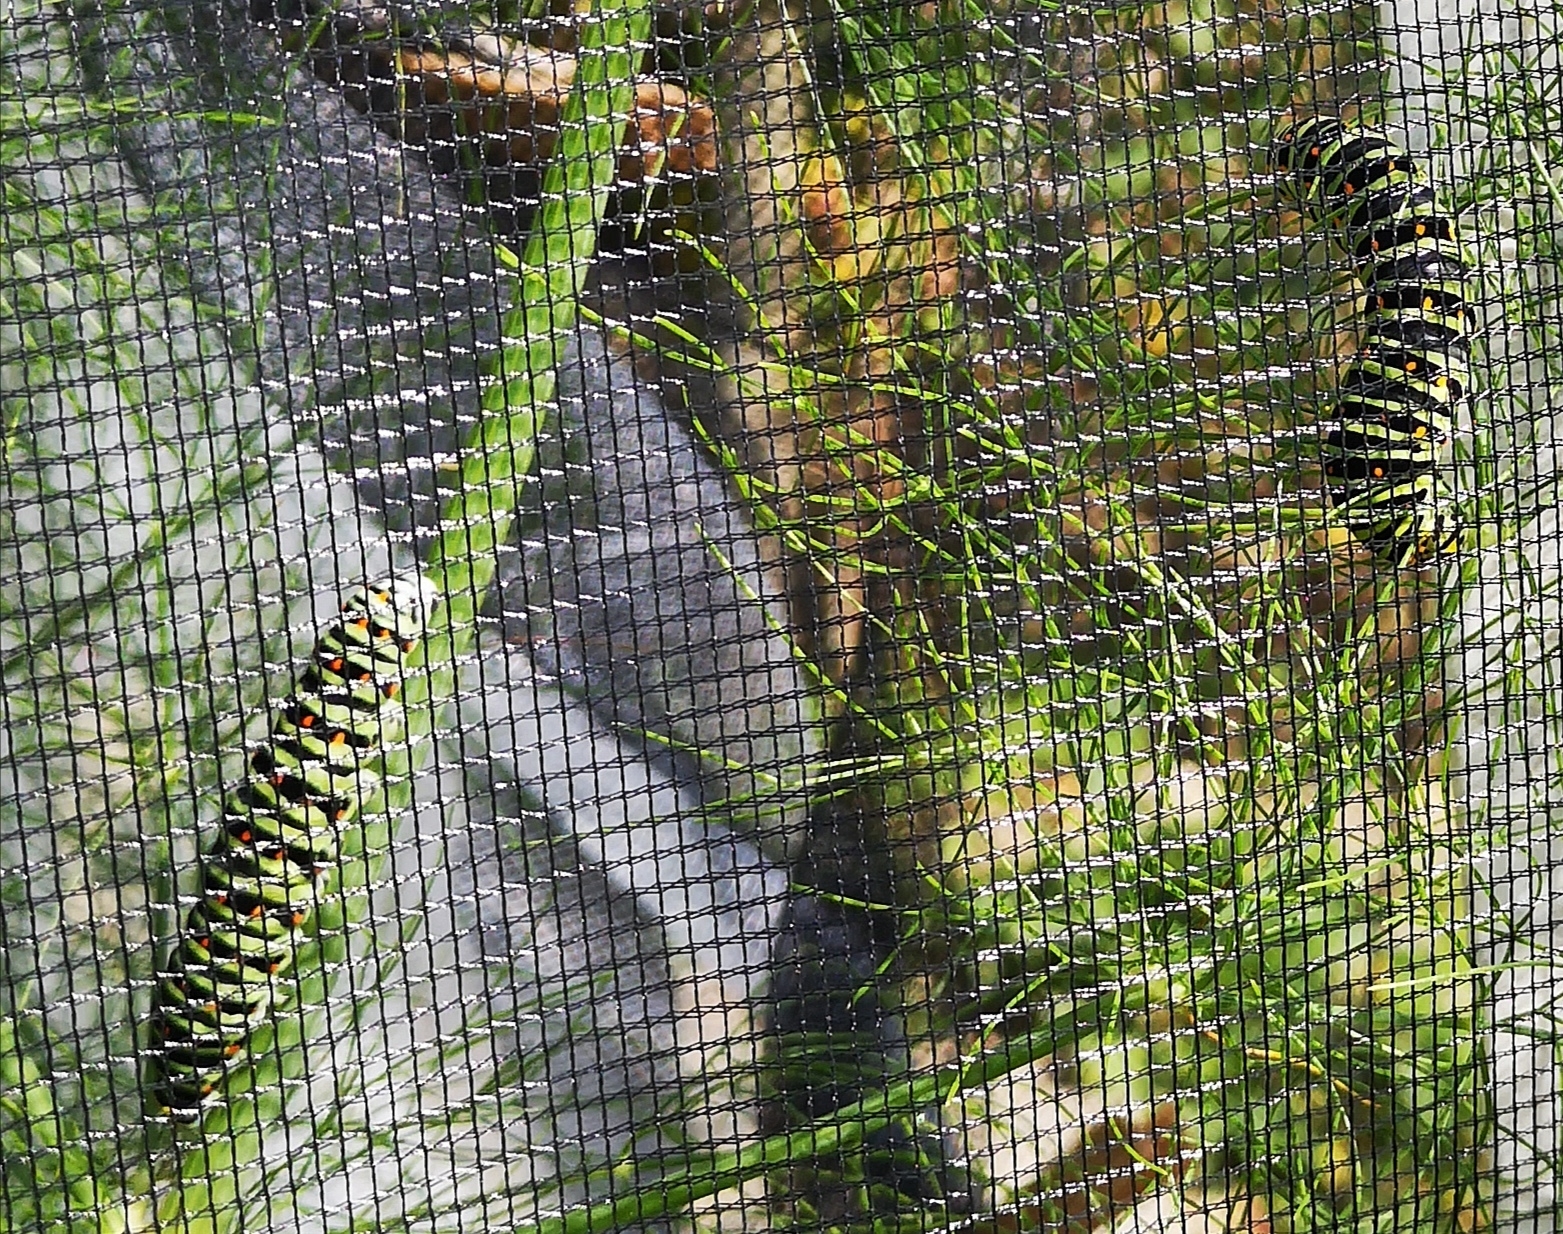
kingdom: Animalia
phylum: Arthropoda
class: Insecta
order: Lepidoptera
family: Papilionidae
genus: Papilio
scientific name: Papilio machaon
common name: Swallowtail
